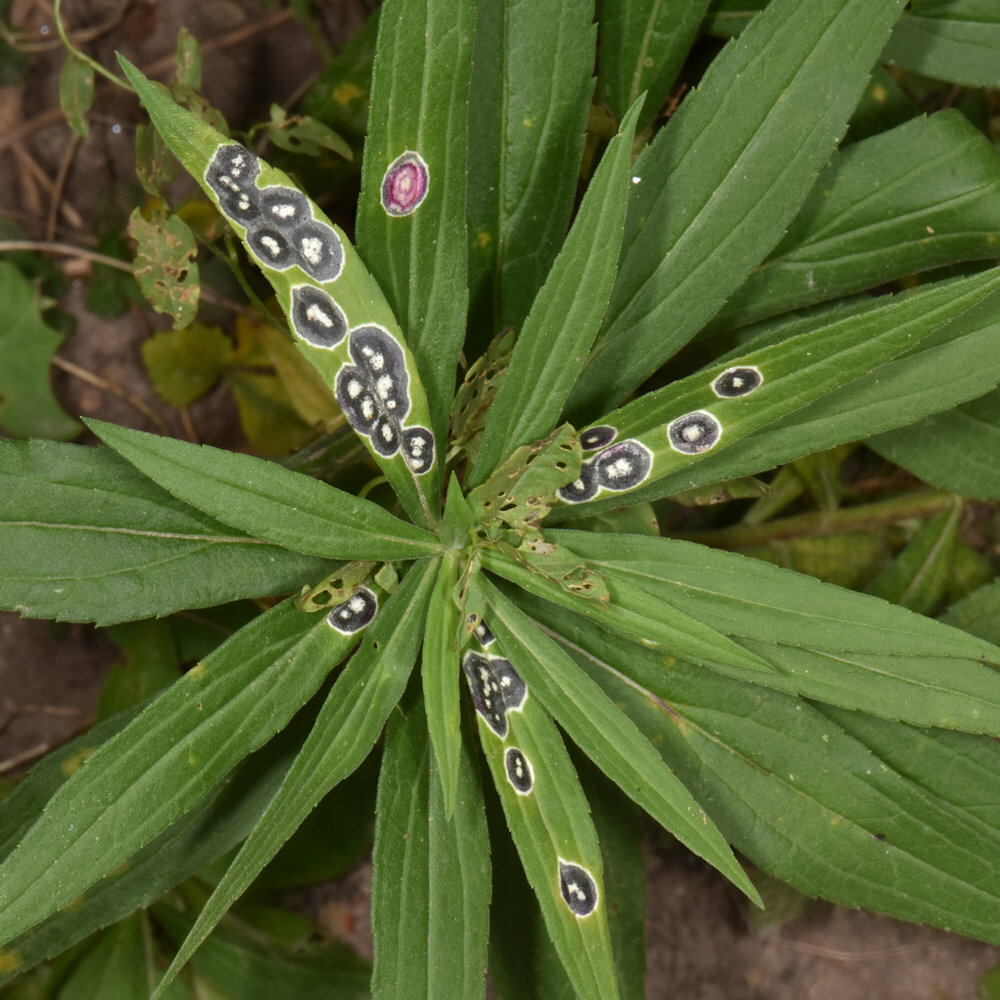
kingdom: Animalia
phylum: Arthropoda
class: Insecta
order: Diptera
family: Cecidomyiidae
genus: Asteromyia
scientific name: Asteromyia carbonifera
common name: Carbonifera goldenrod gall midge
